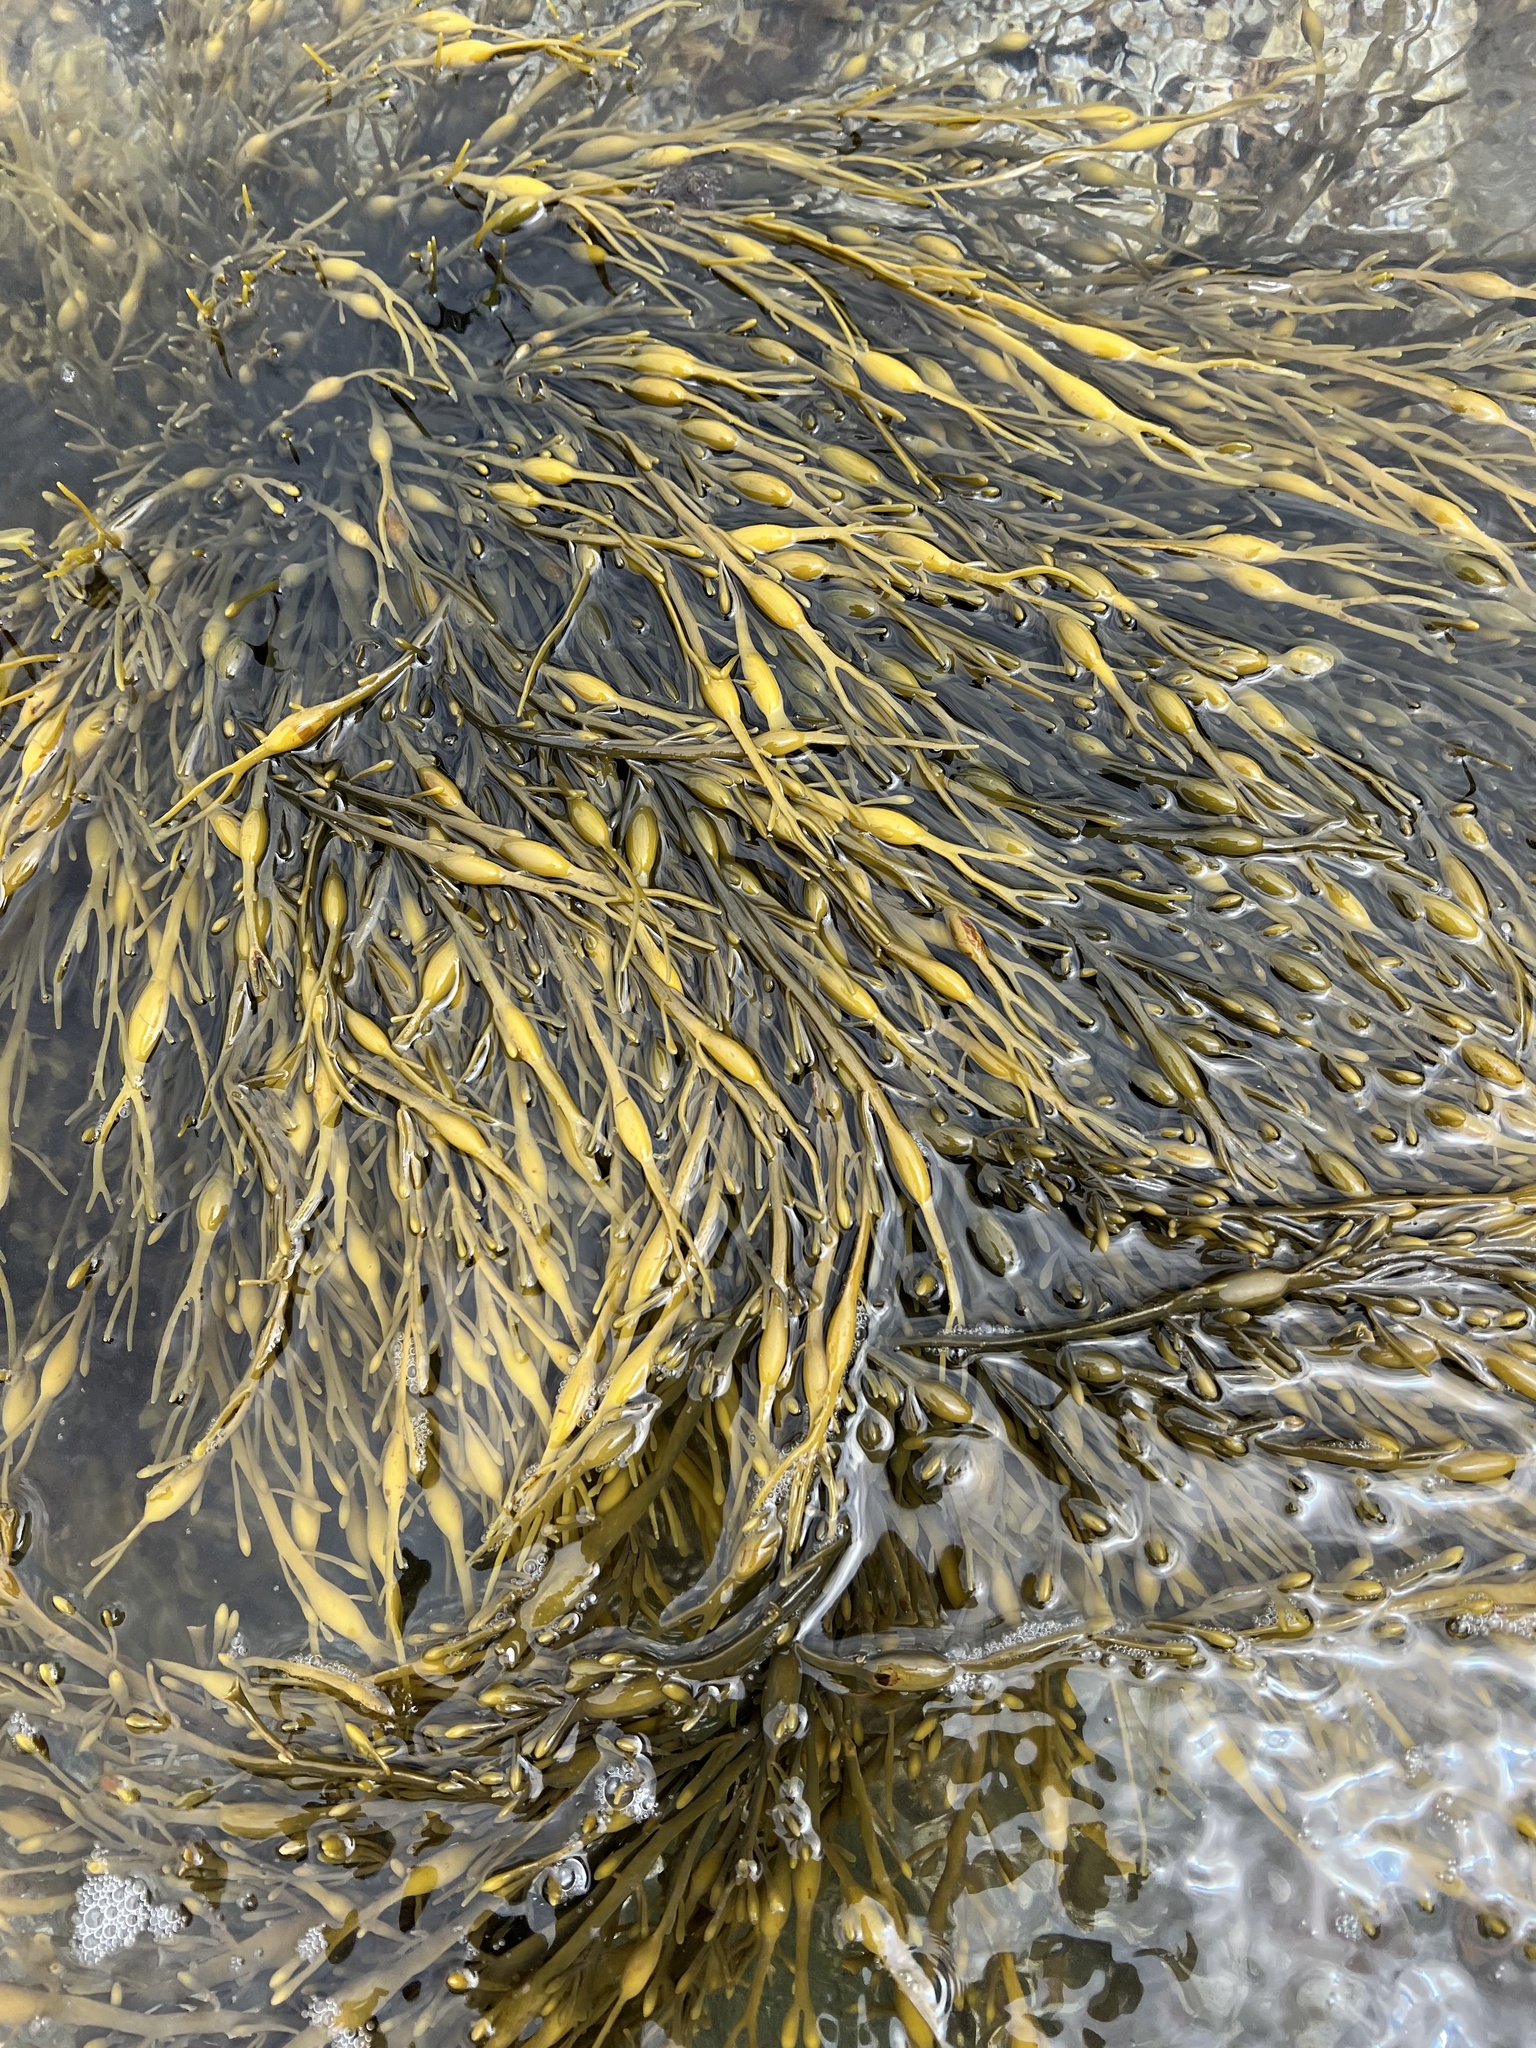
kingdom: Chromista
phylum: Ochrophyta
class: Phaeophyceae
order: Fucales
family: Fucaceae
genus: Ascophyllum
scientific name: Ascophyllum nodosum
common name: Knotted wrack
